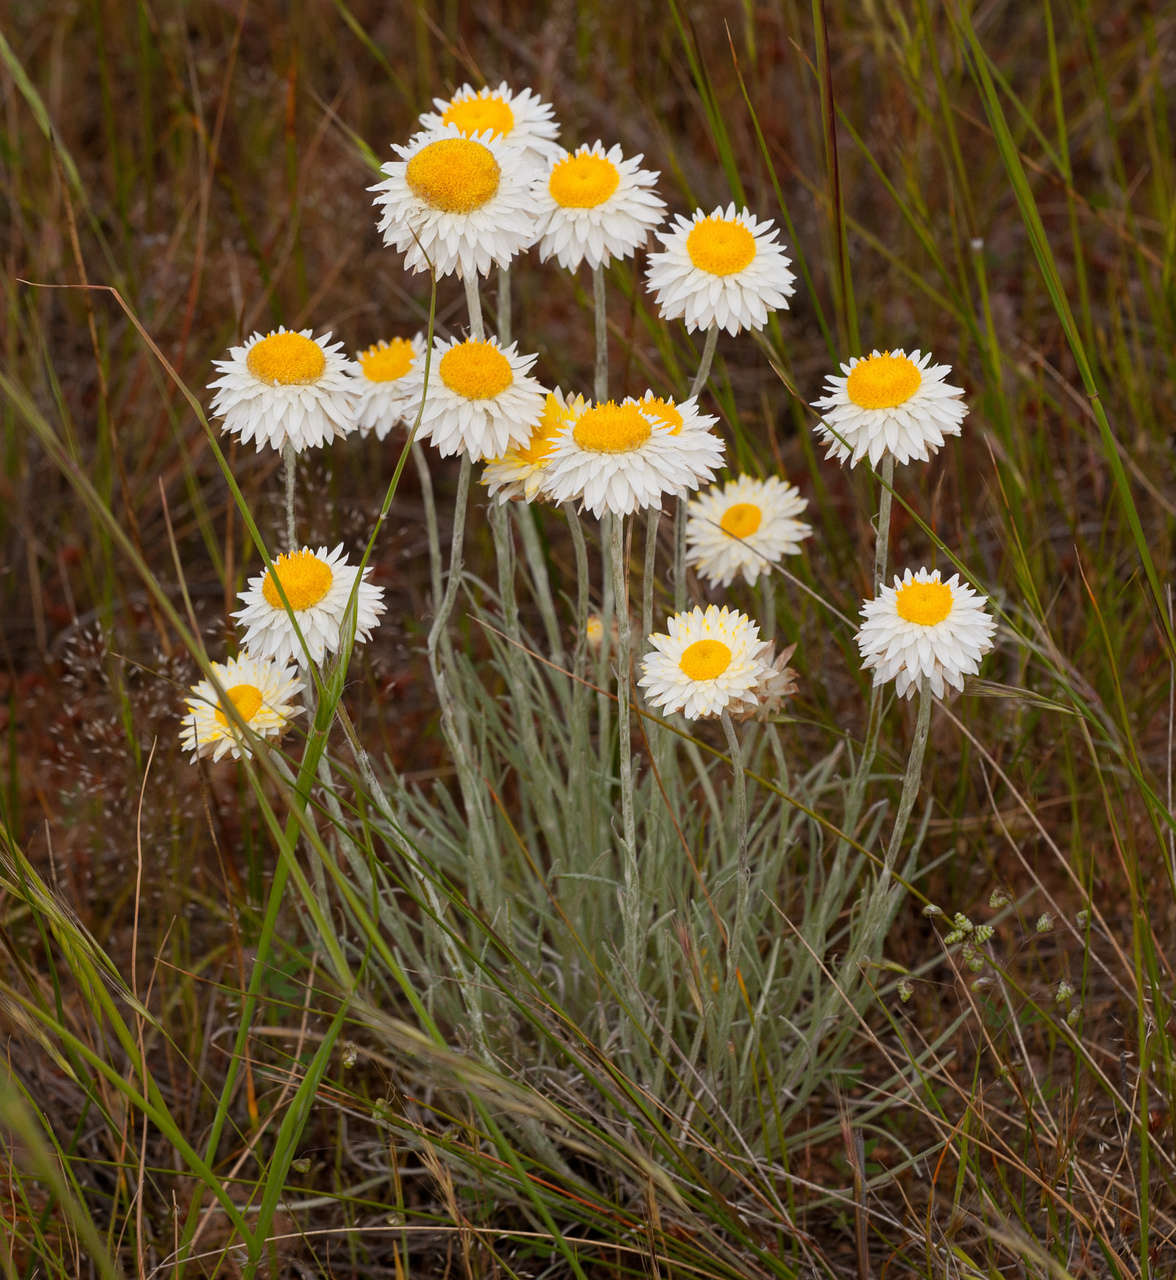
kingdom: Plantae
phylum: Tracheophyta
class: Magnoliopsida
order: Asterales
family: Asteraceae
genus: Leucochrysum
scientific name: Leucochrysum albicans
